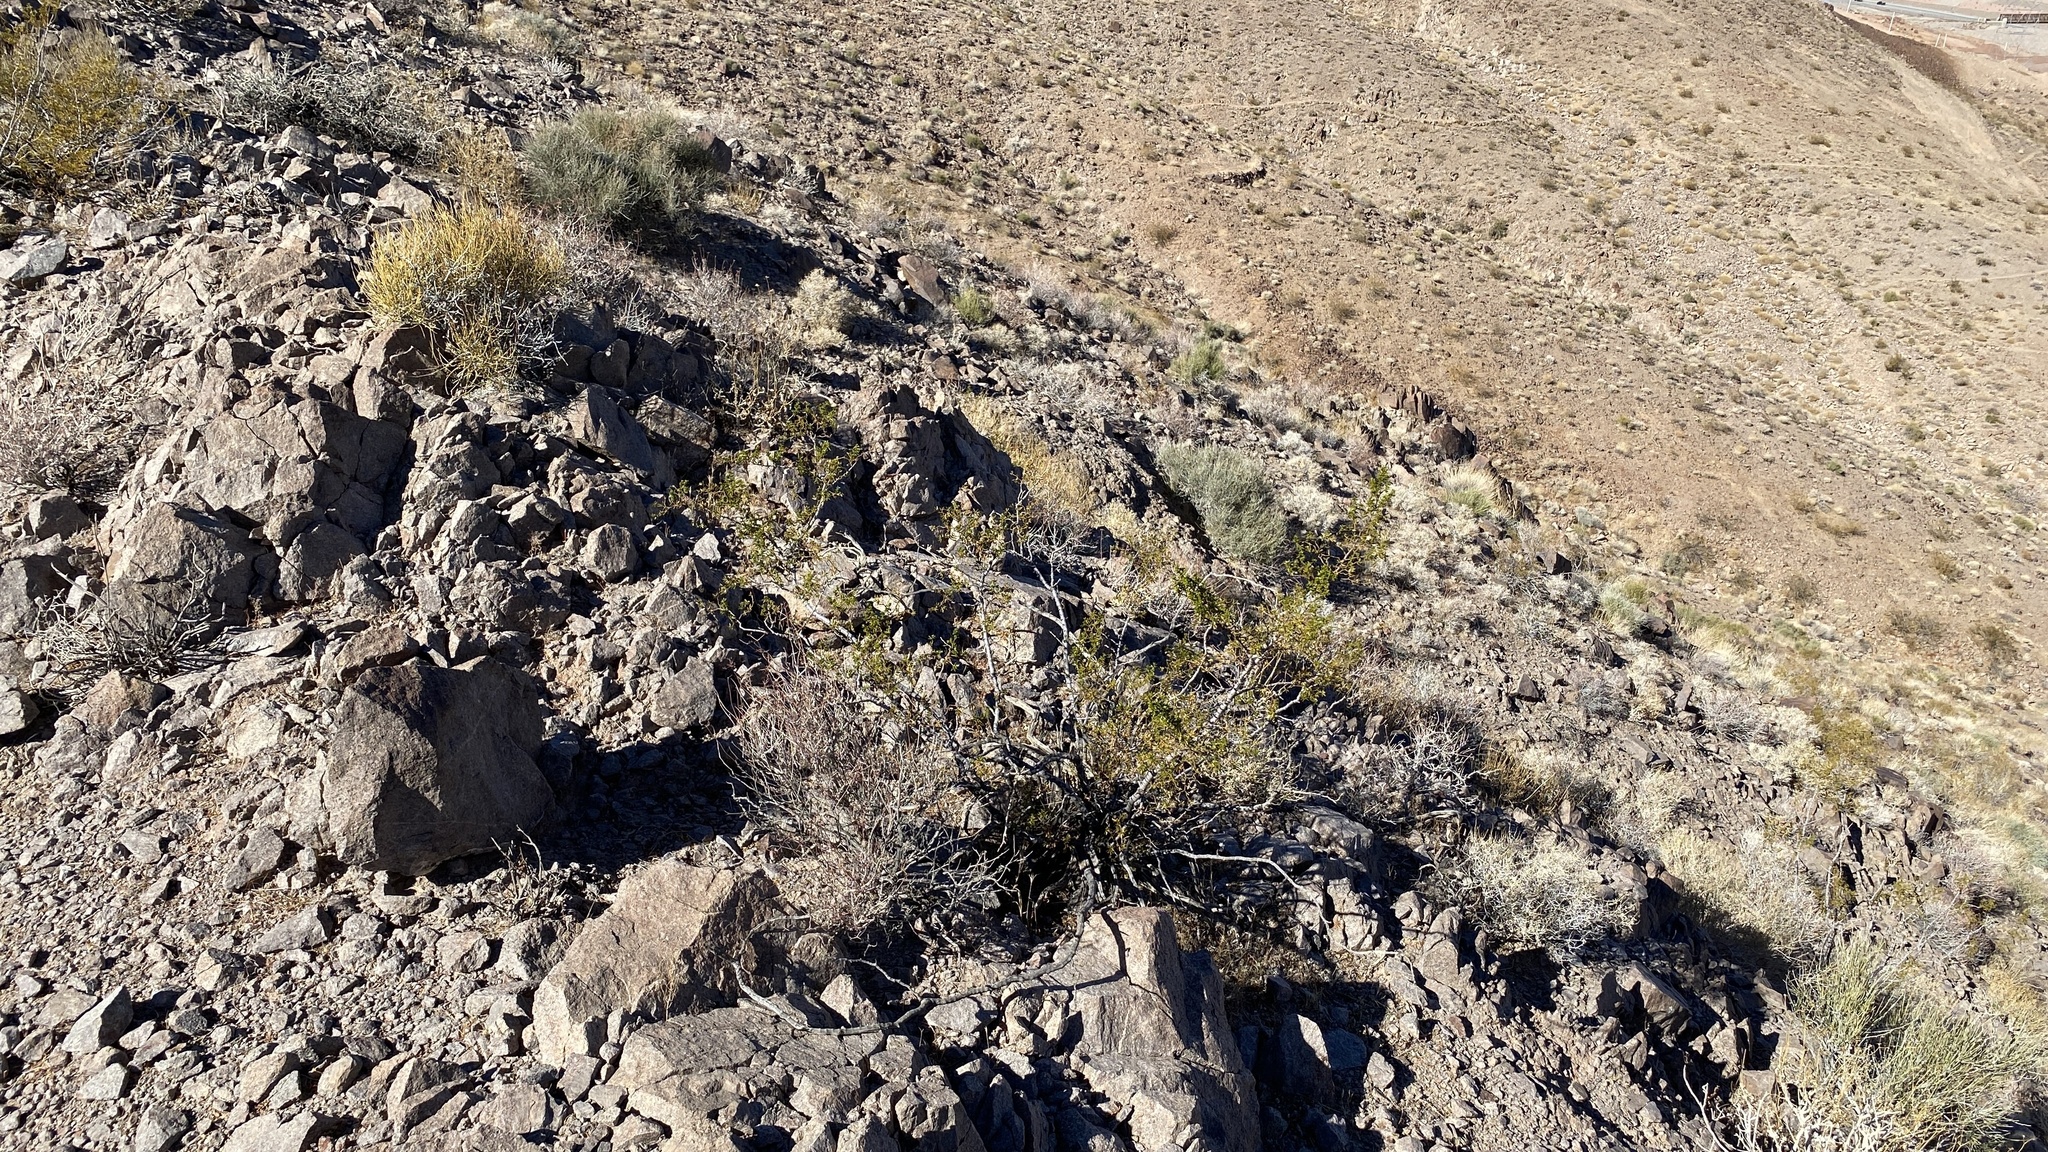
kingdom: Plantae
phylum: Tracheophyta
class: Magnoliopsida
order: Zygophyllales
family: Zygophyllaceae
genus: Larrea
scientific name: Larrea tridentata
